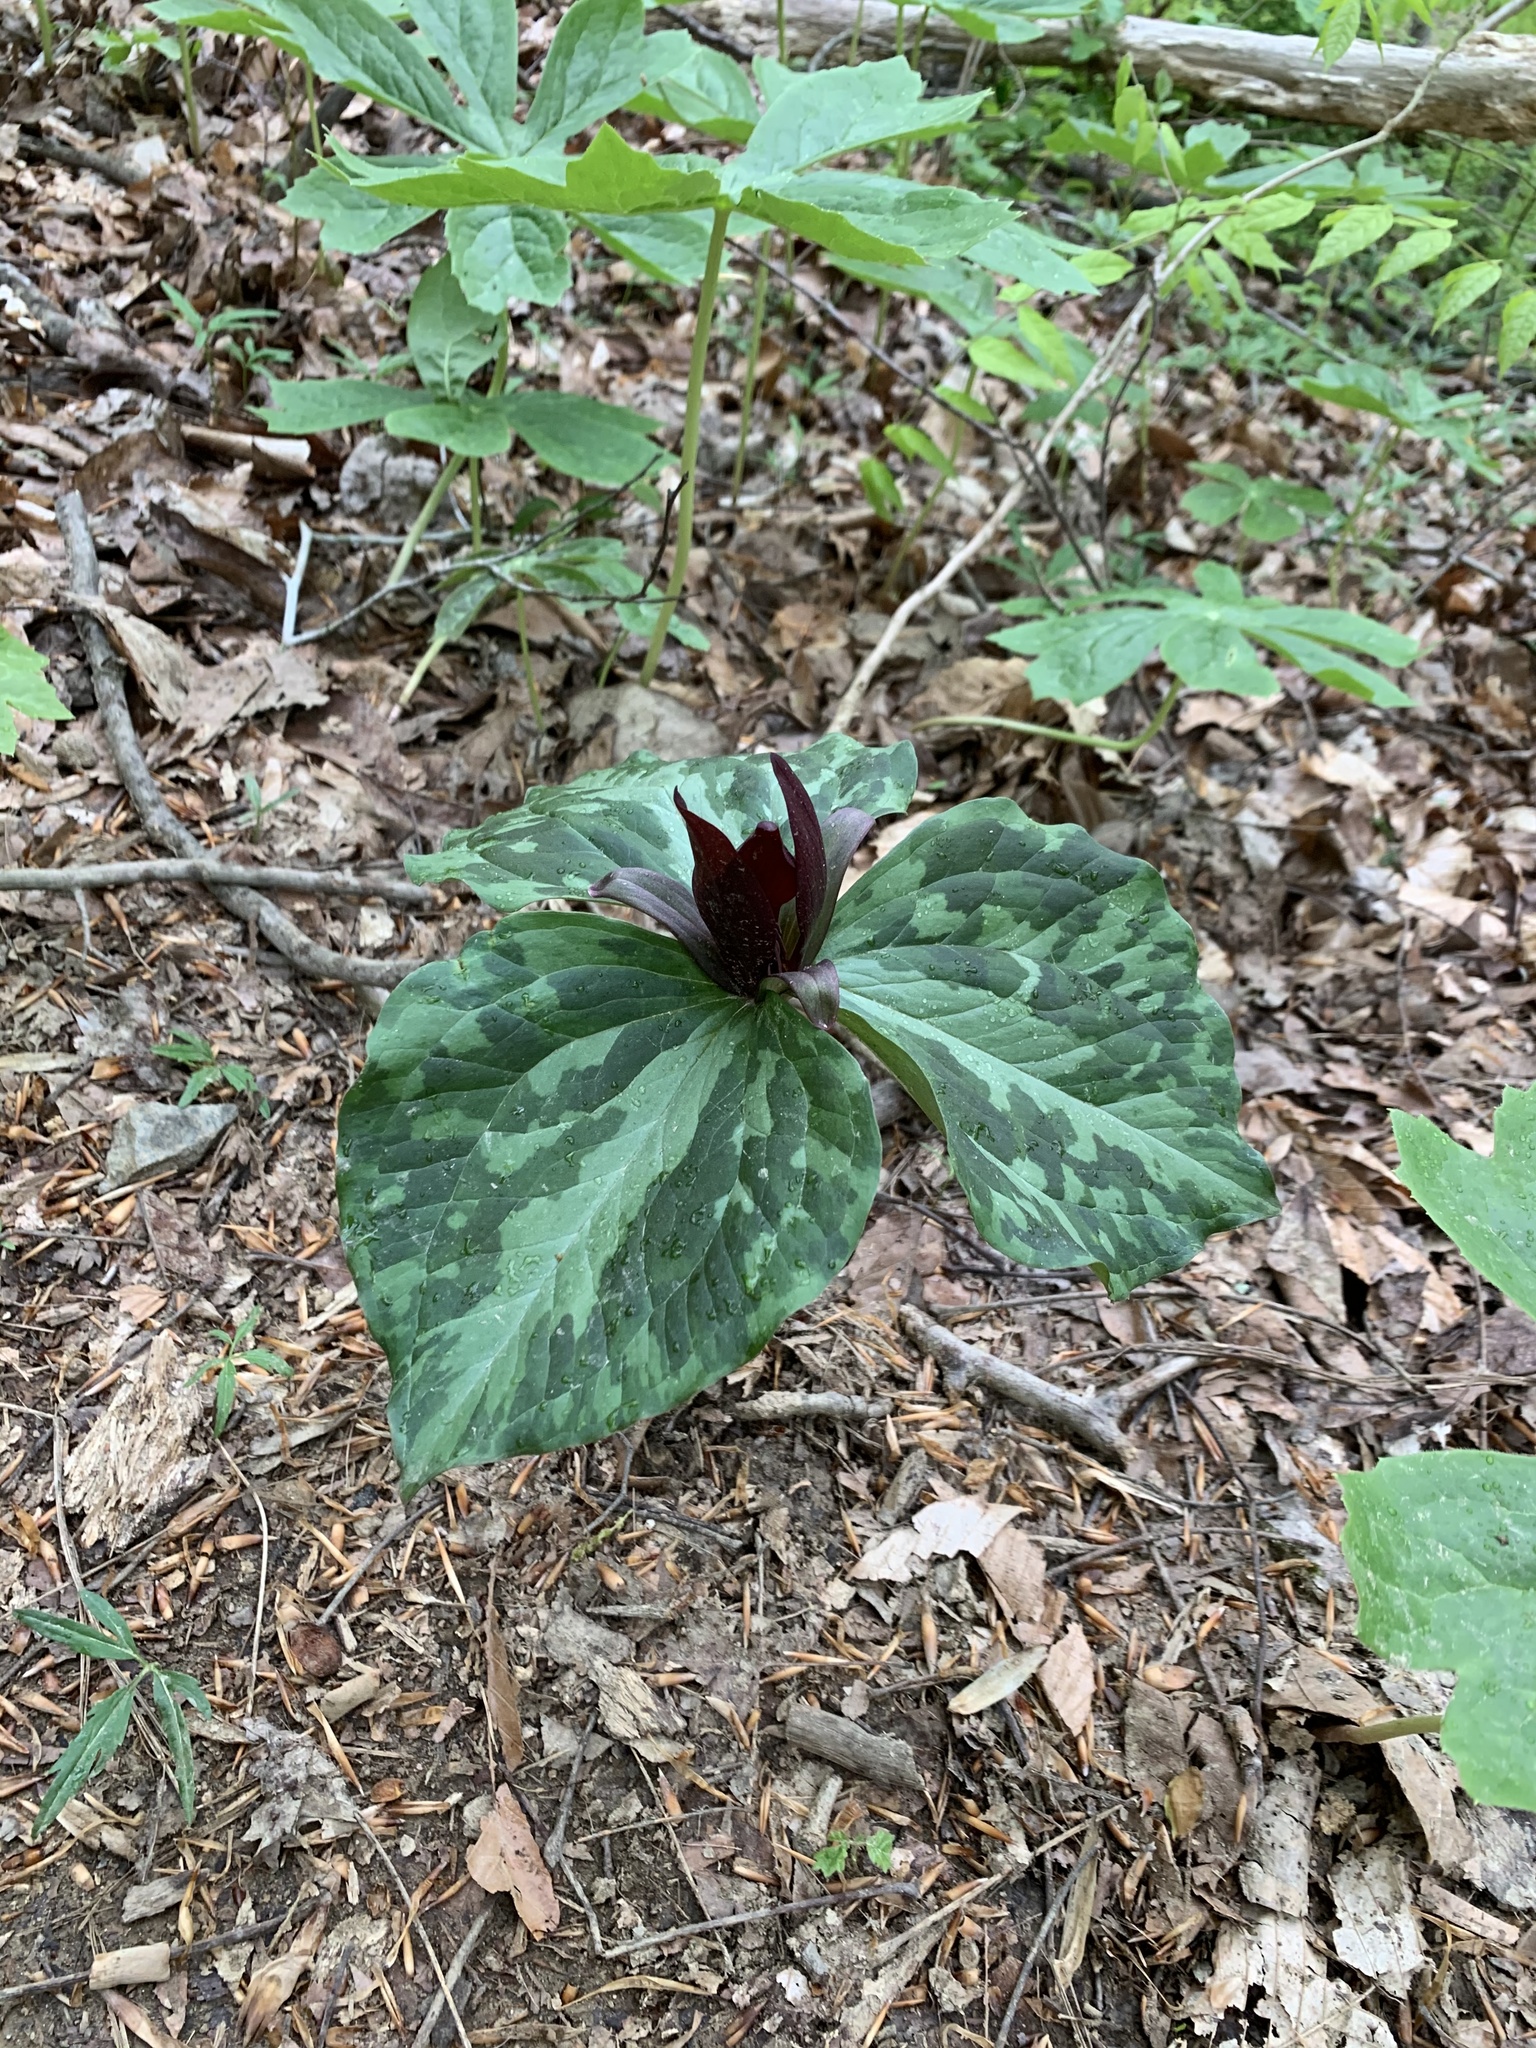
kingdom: Plantae
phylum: Tracheophyta
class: Liliopsida
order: Liliales
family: Melanthiaceae
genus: Trillium
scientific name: Trillium cuneatum
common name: Cuneate trillium
